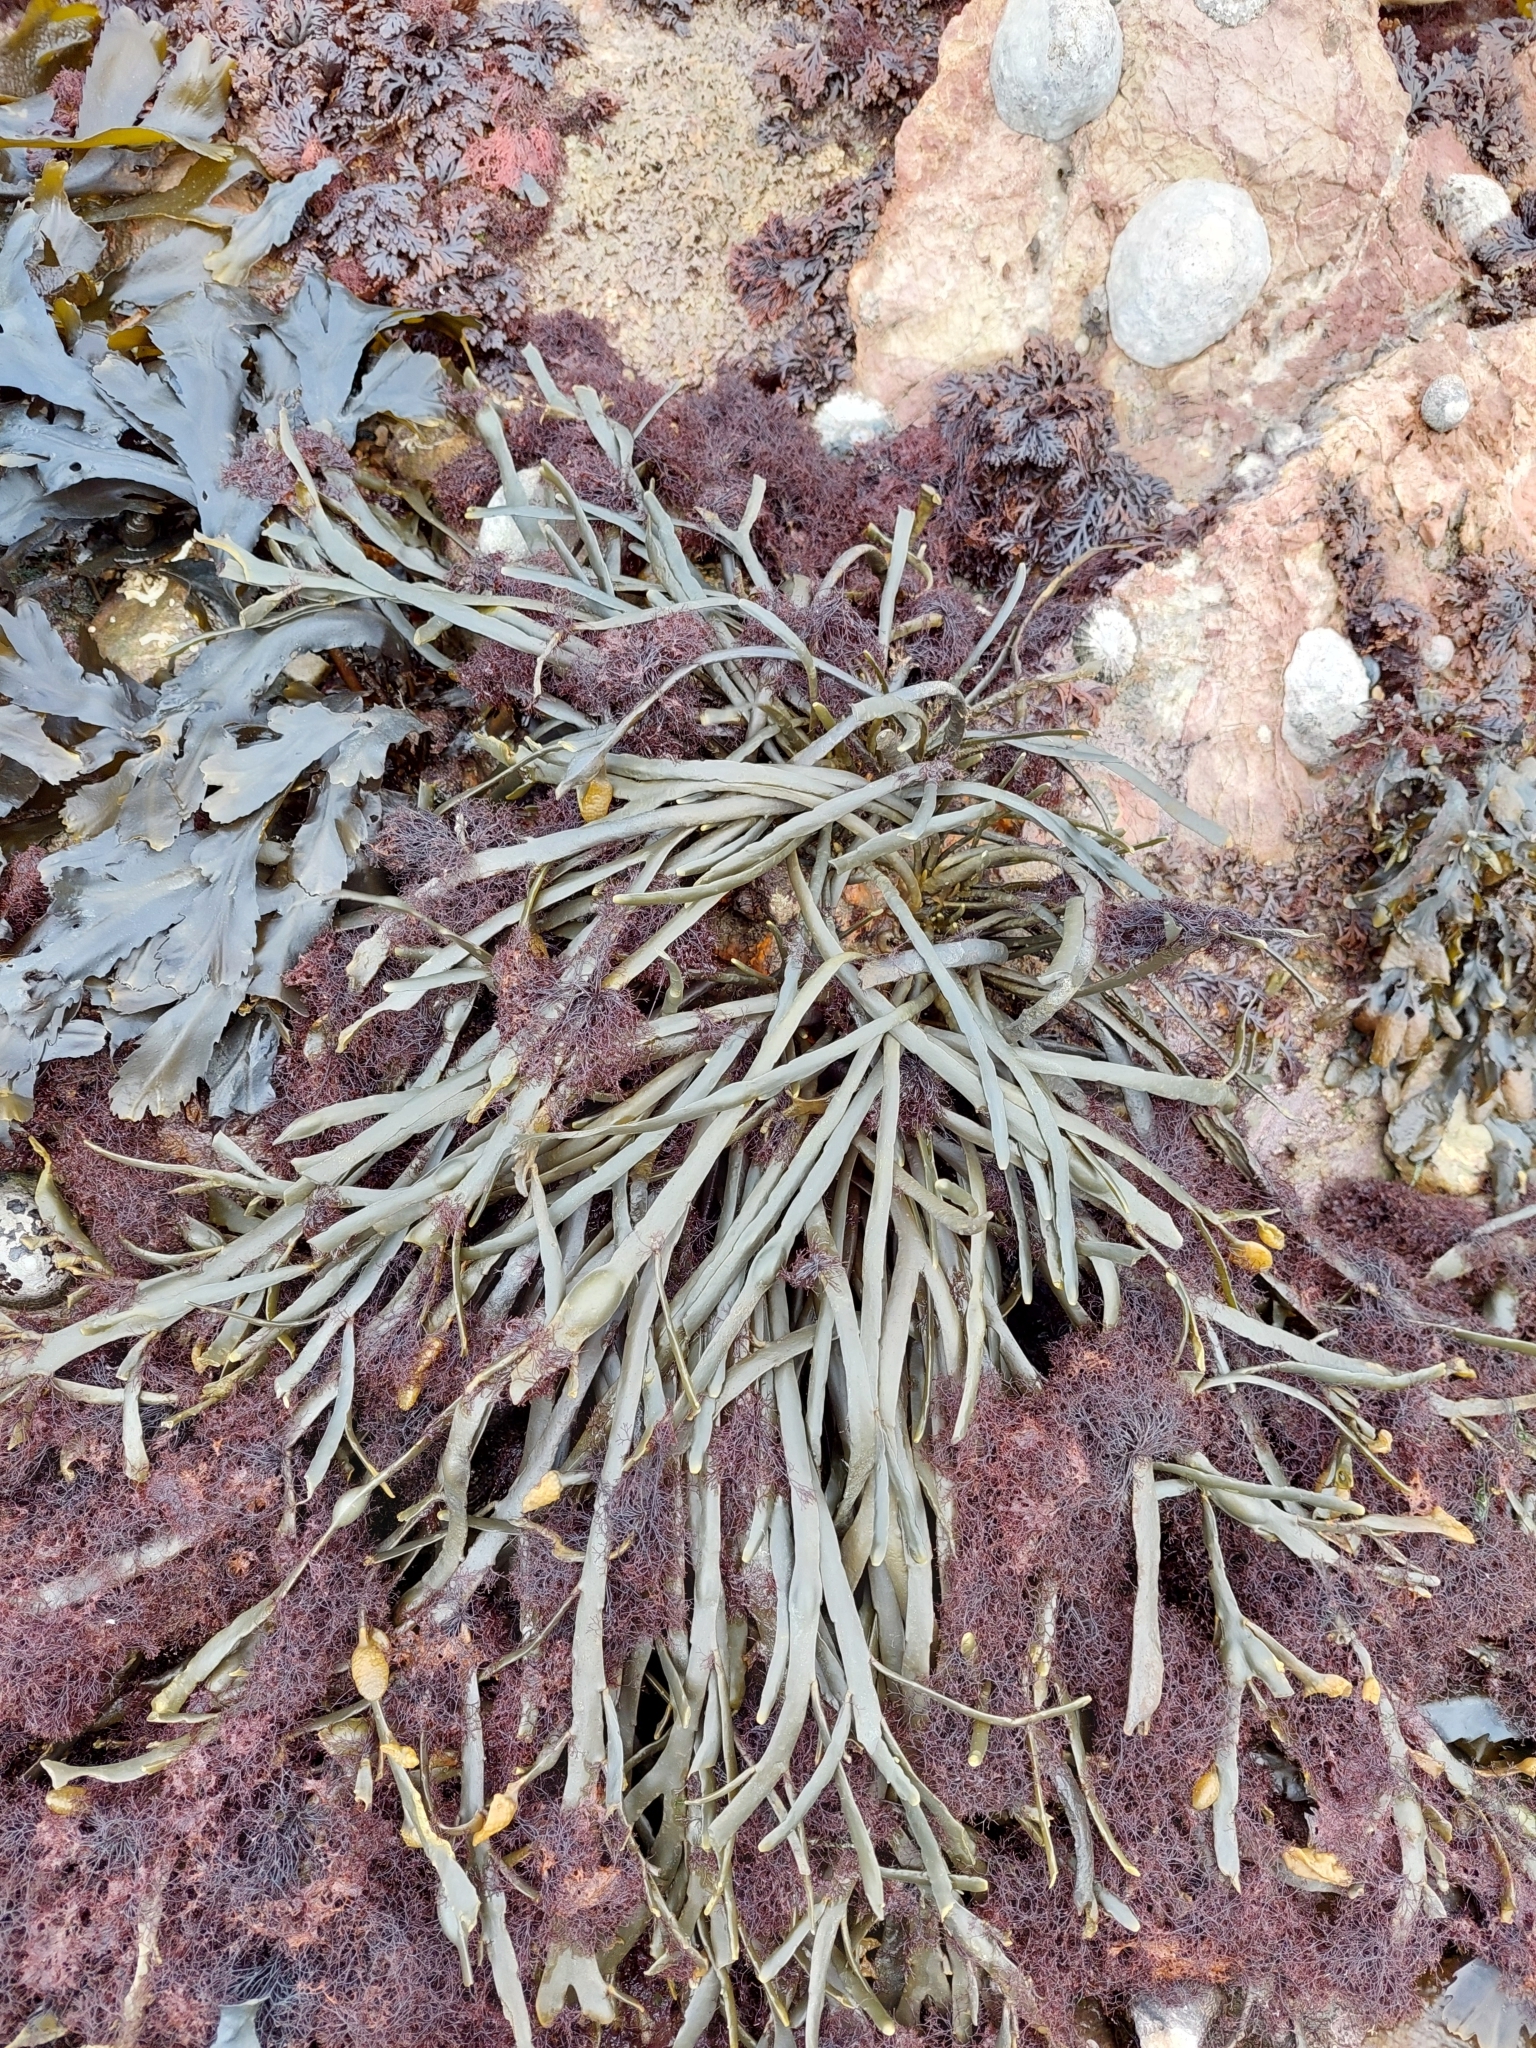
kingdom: Chromista
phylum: Ochrophyta
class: Phaeophyceae
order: Fucales
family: Fucaceae
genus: Ascophyllum
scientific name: Ascophyllum nodosum
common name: Knotted wrack
